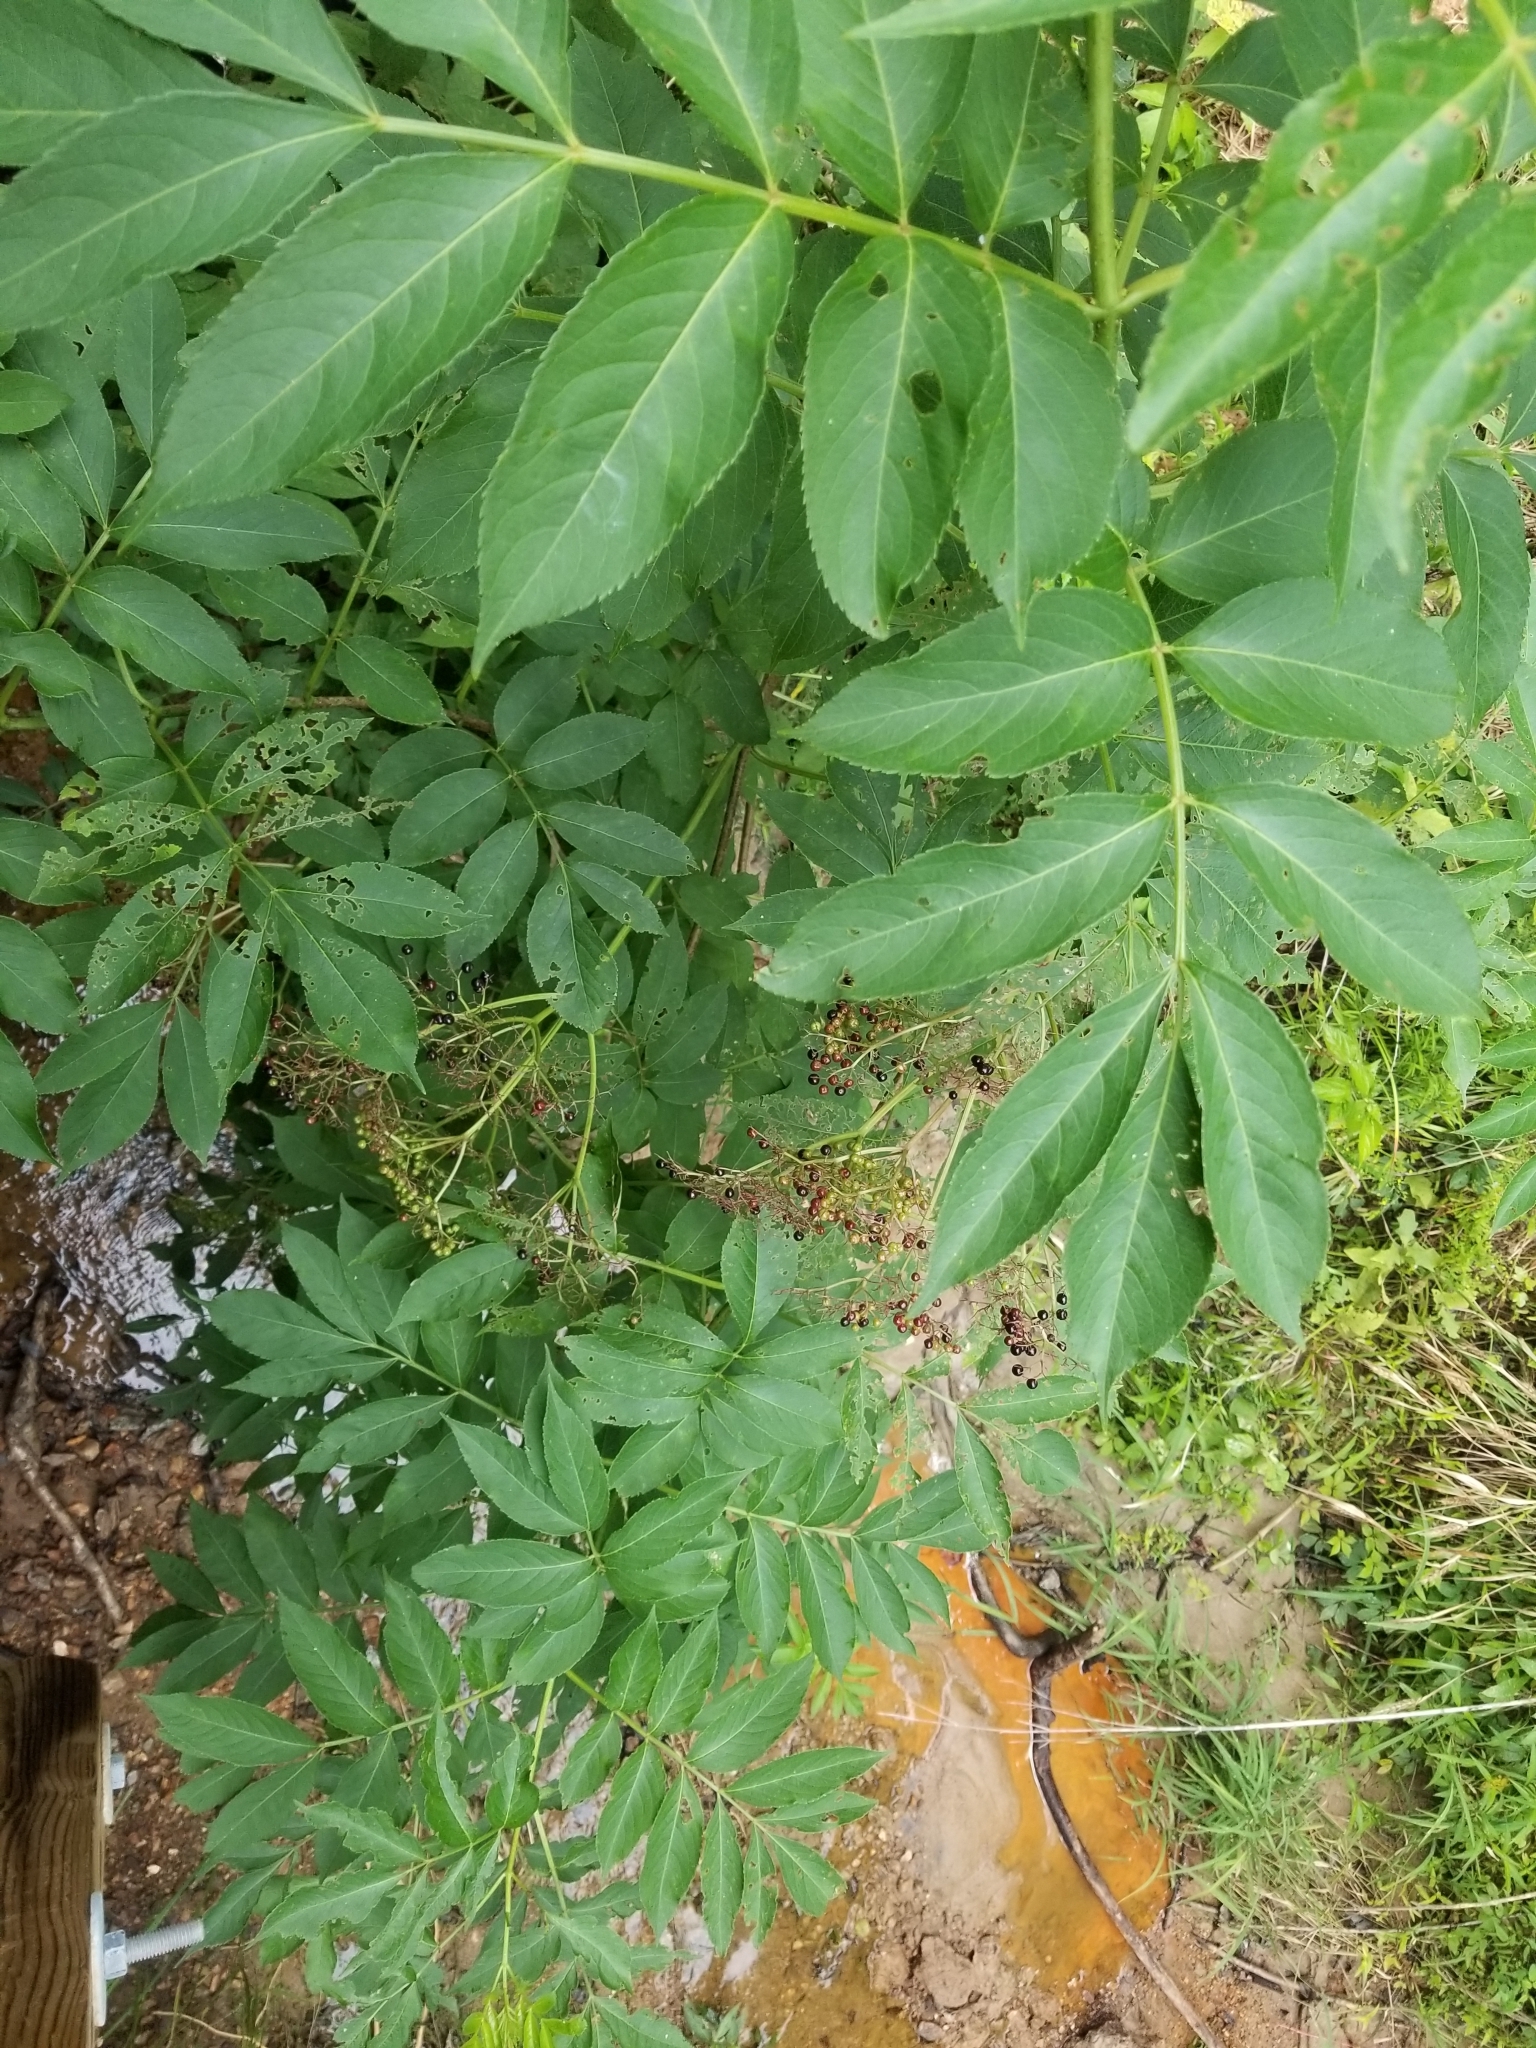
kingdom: Plantae
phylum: Tracheophyta
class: Magnoliopsida
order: Dipsacales
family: Viburnaceae
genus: Sambucus
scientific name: Sambucus canadensis
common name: American elder
